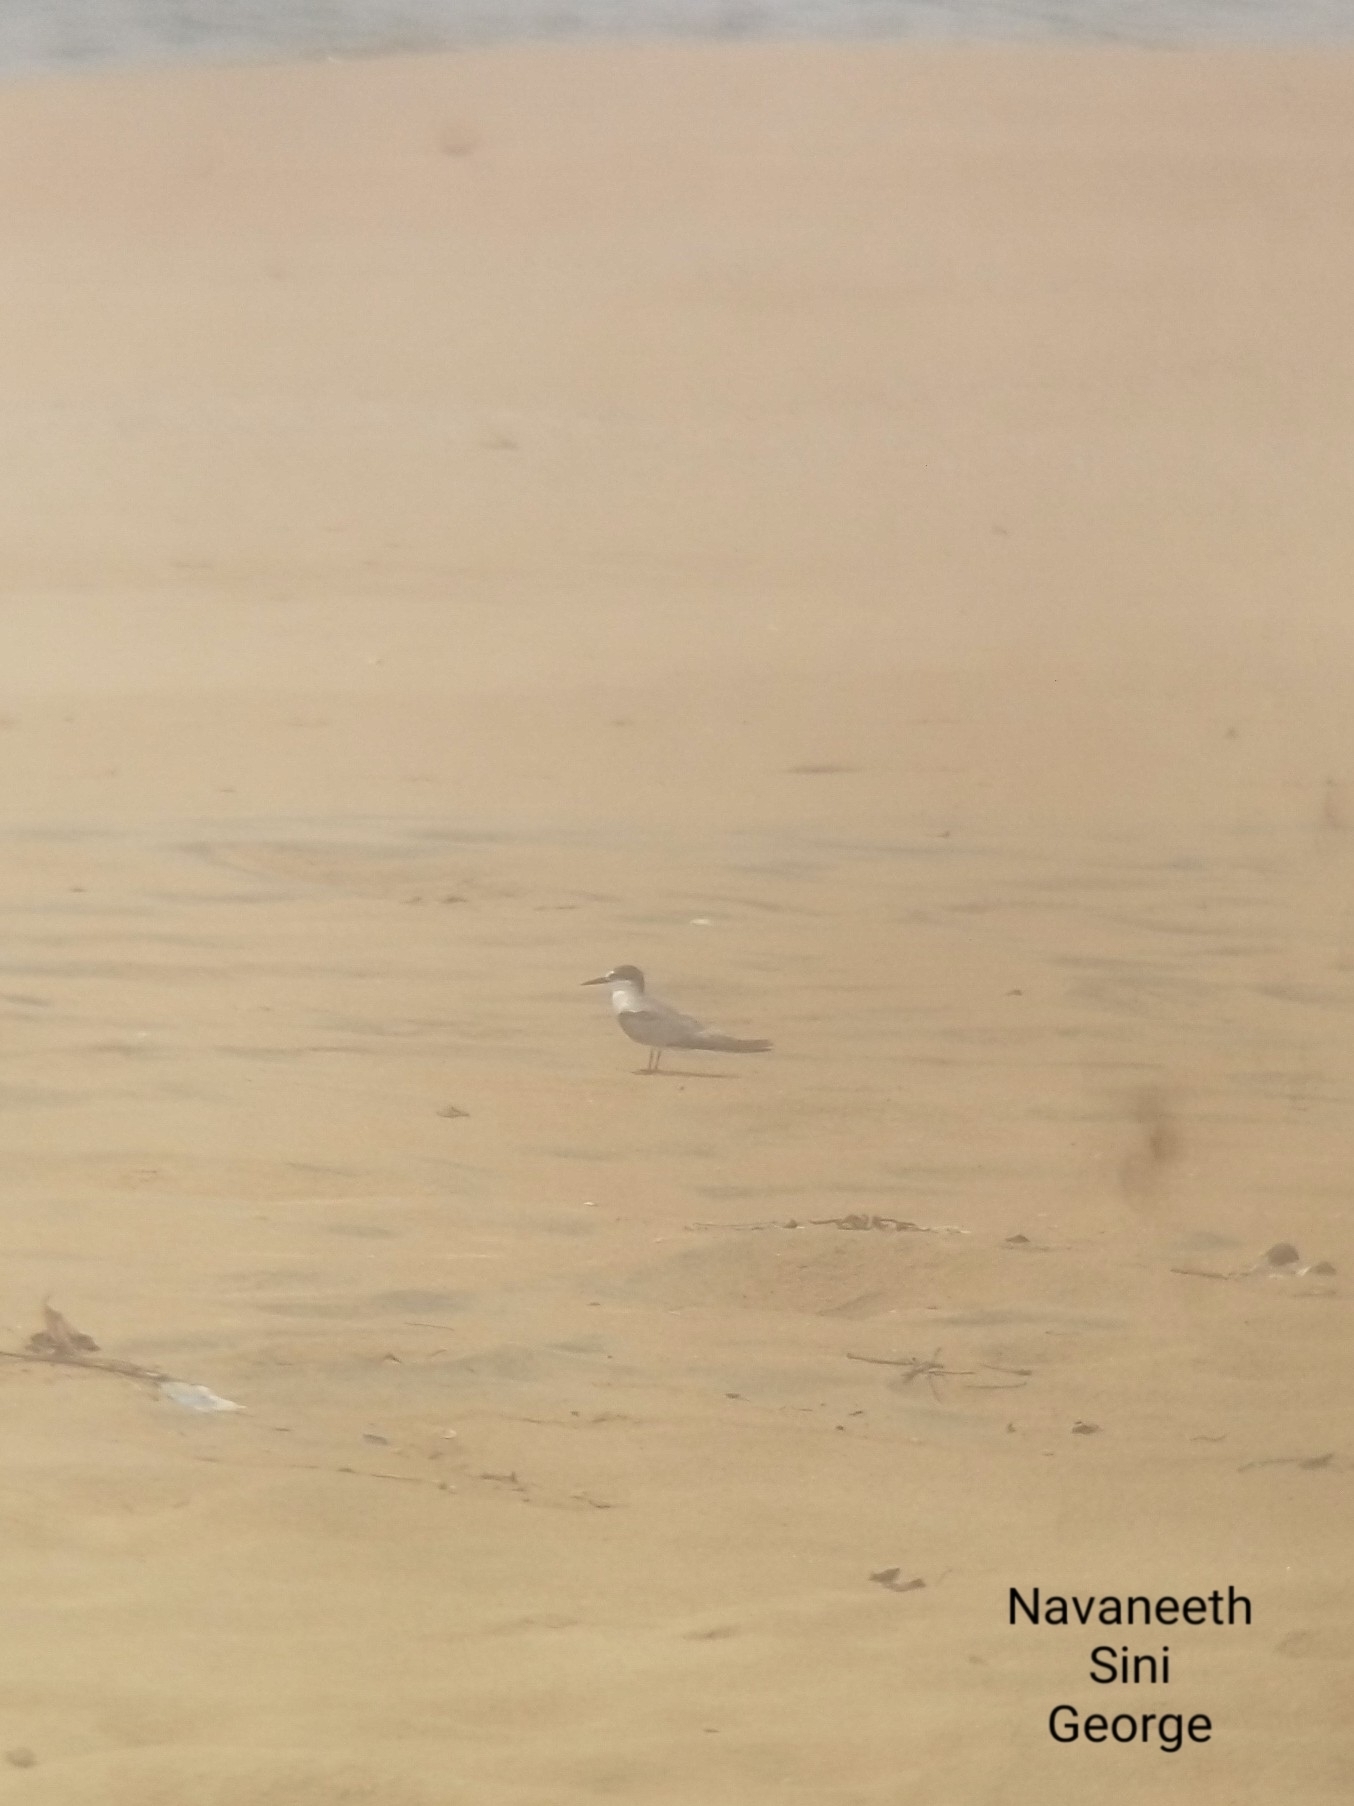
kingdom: Animalia
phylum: Chordata
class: Aves
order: Charadriiformes
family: Laridae
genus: Sternula
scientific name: Sternula albifrons
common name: Little tern
